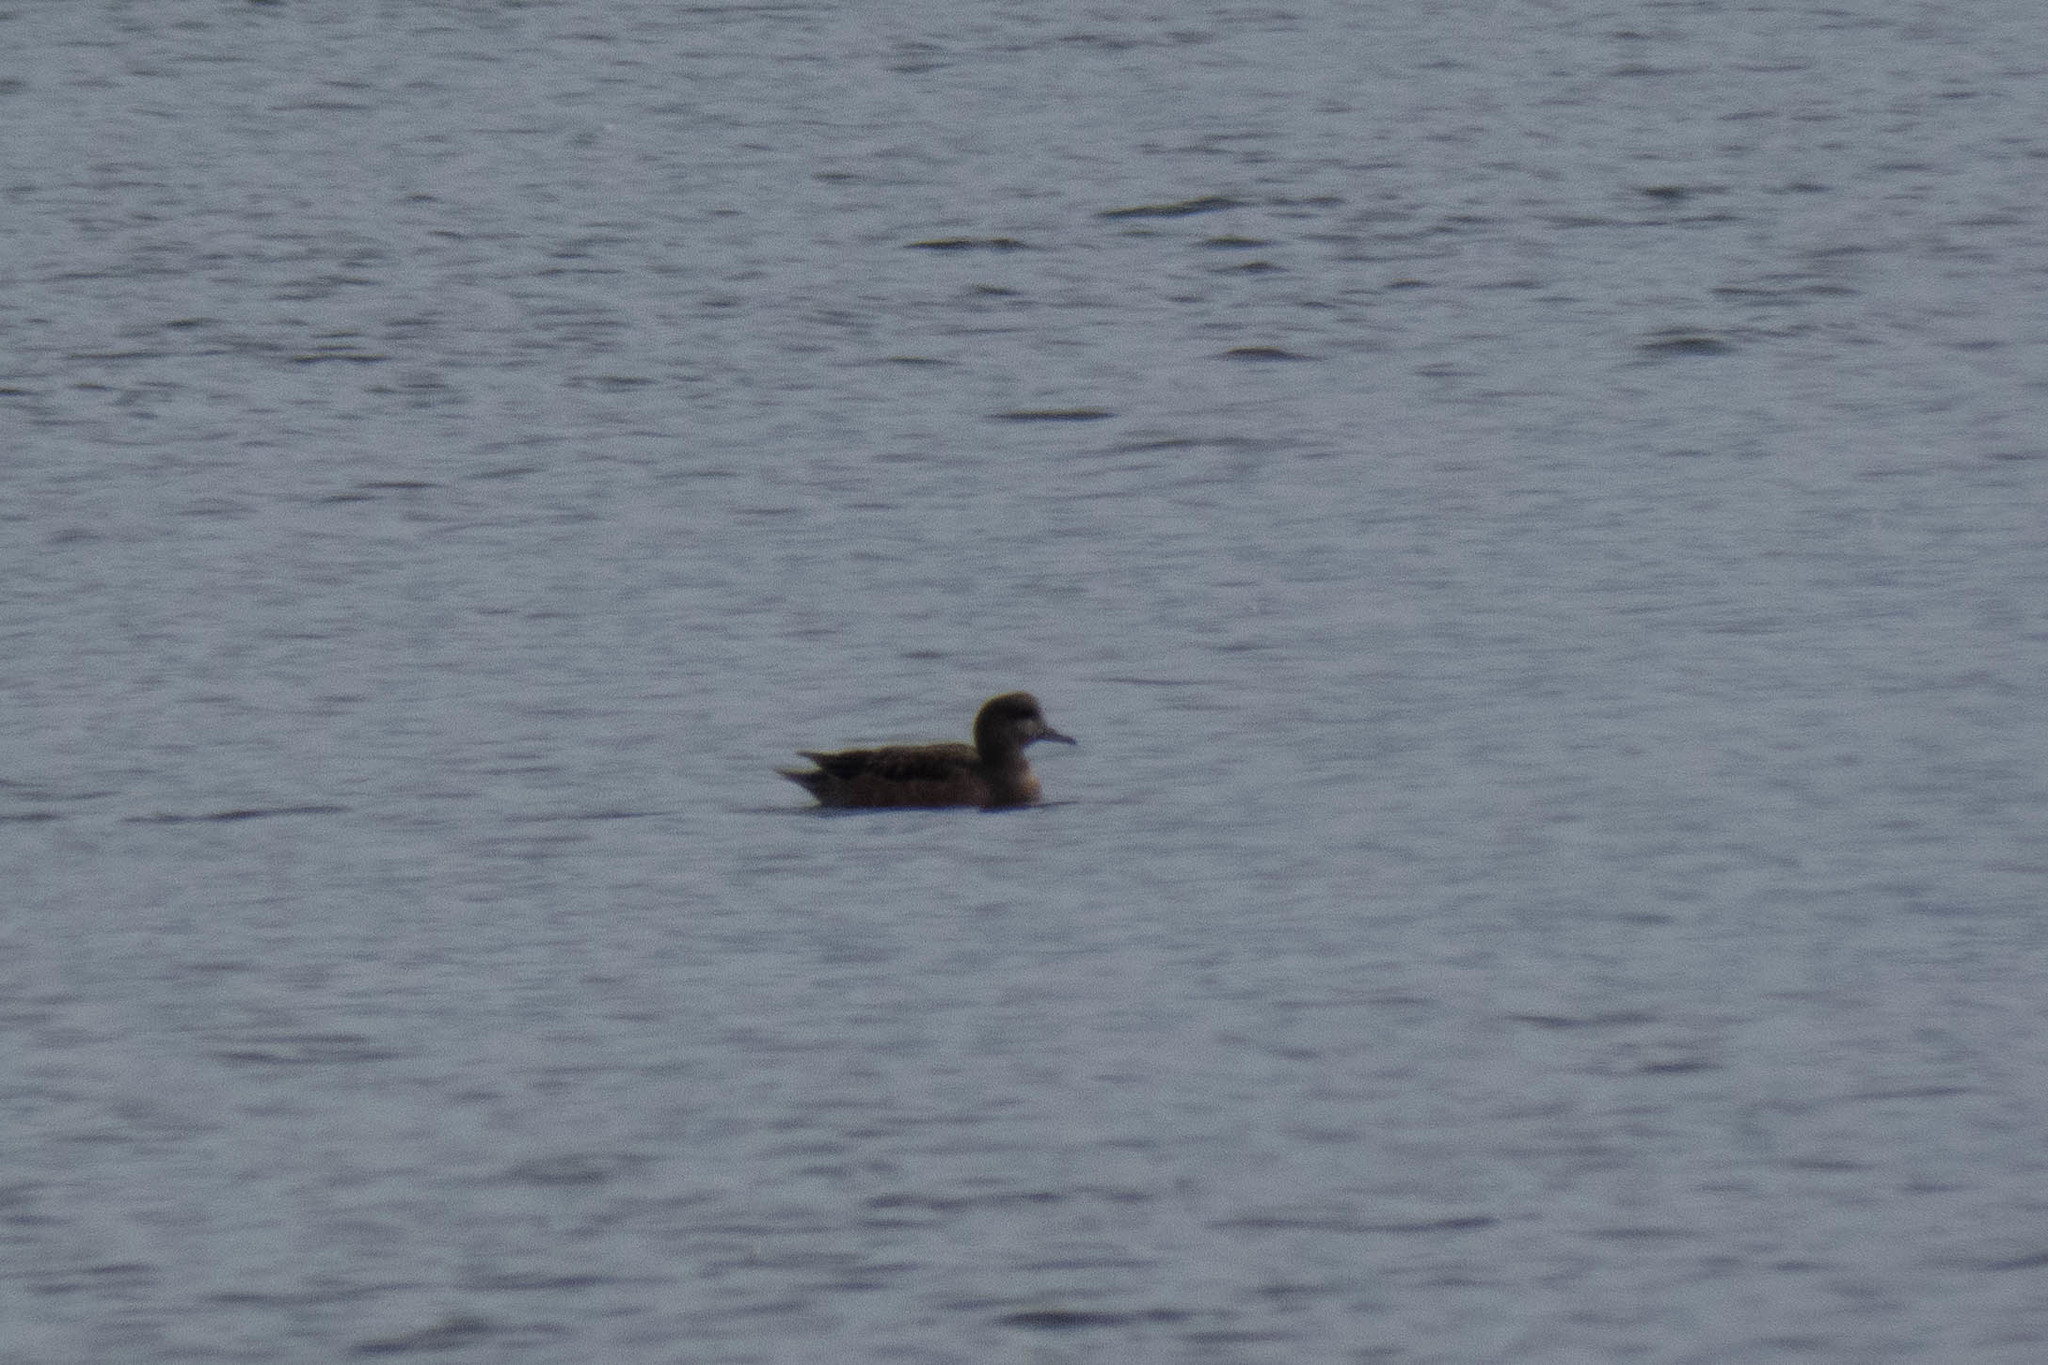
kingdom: Animalia
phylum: Chordata
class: Aves
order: Anseriformes
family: Anatidae
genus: Mareca
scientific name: Mareca americana
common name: American wigeon
